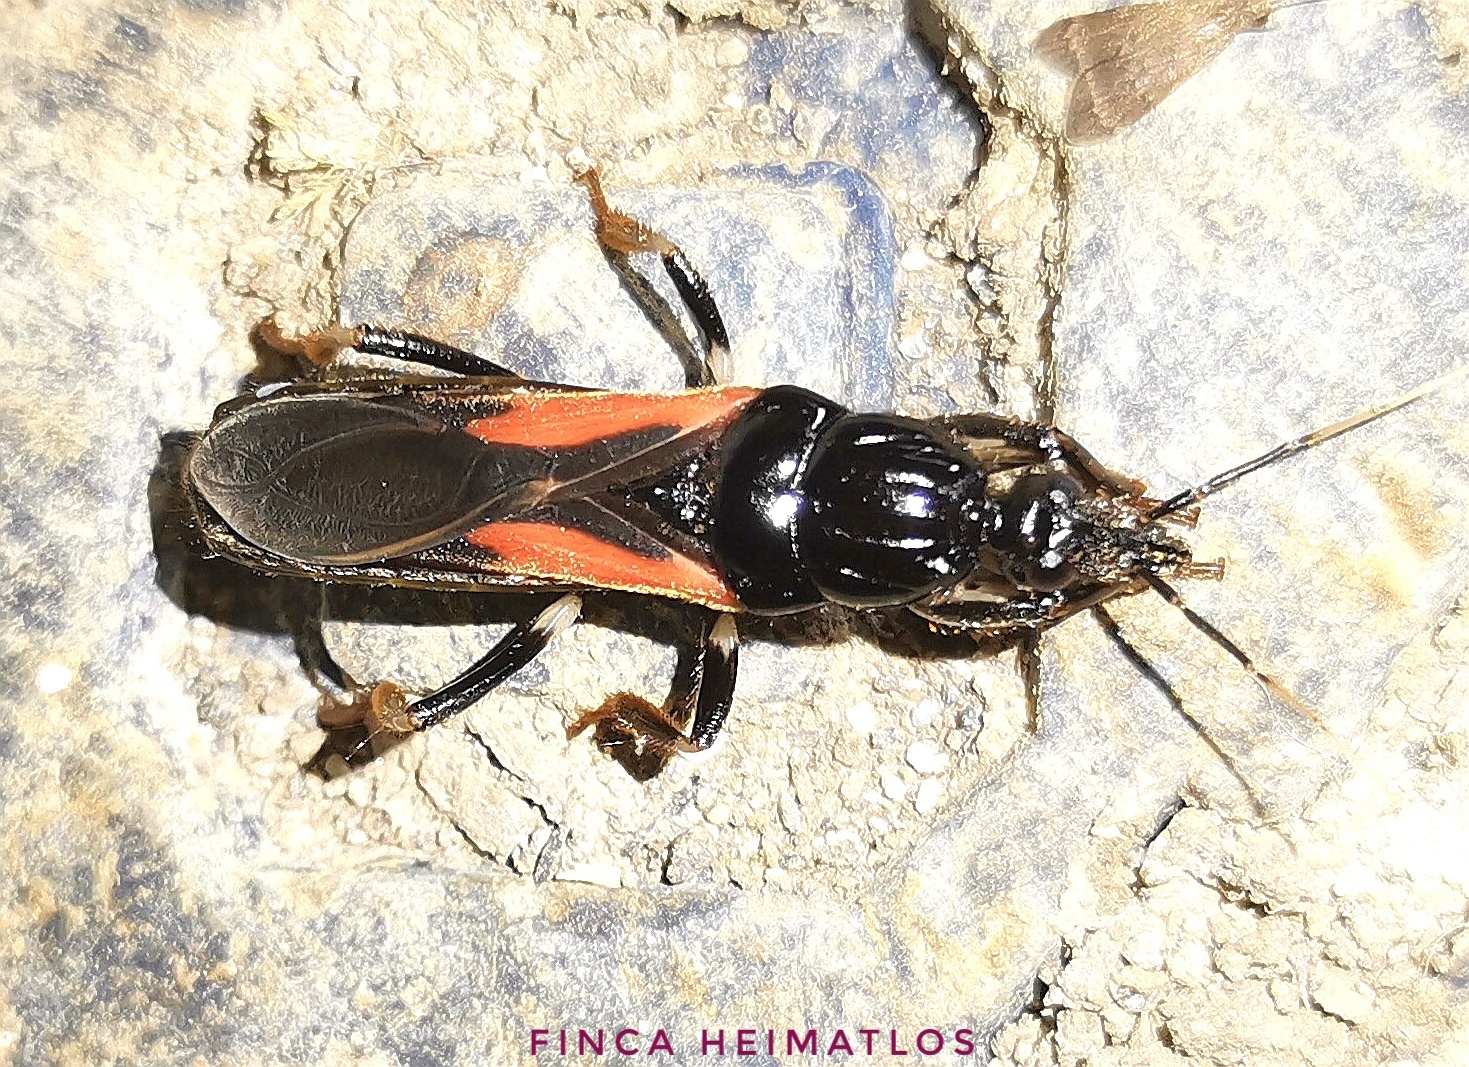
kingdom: Animalia
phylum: Arthropoda
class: Insecta
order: Hemiptera
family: Reduviidae
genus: Sirthenea
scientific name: Sirthenea pedestris
